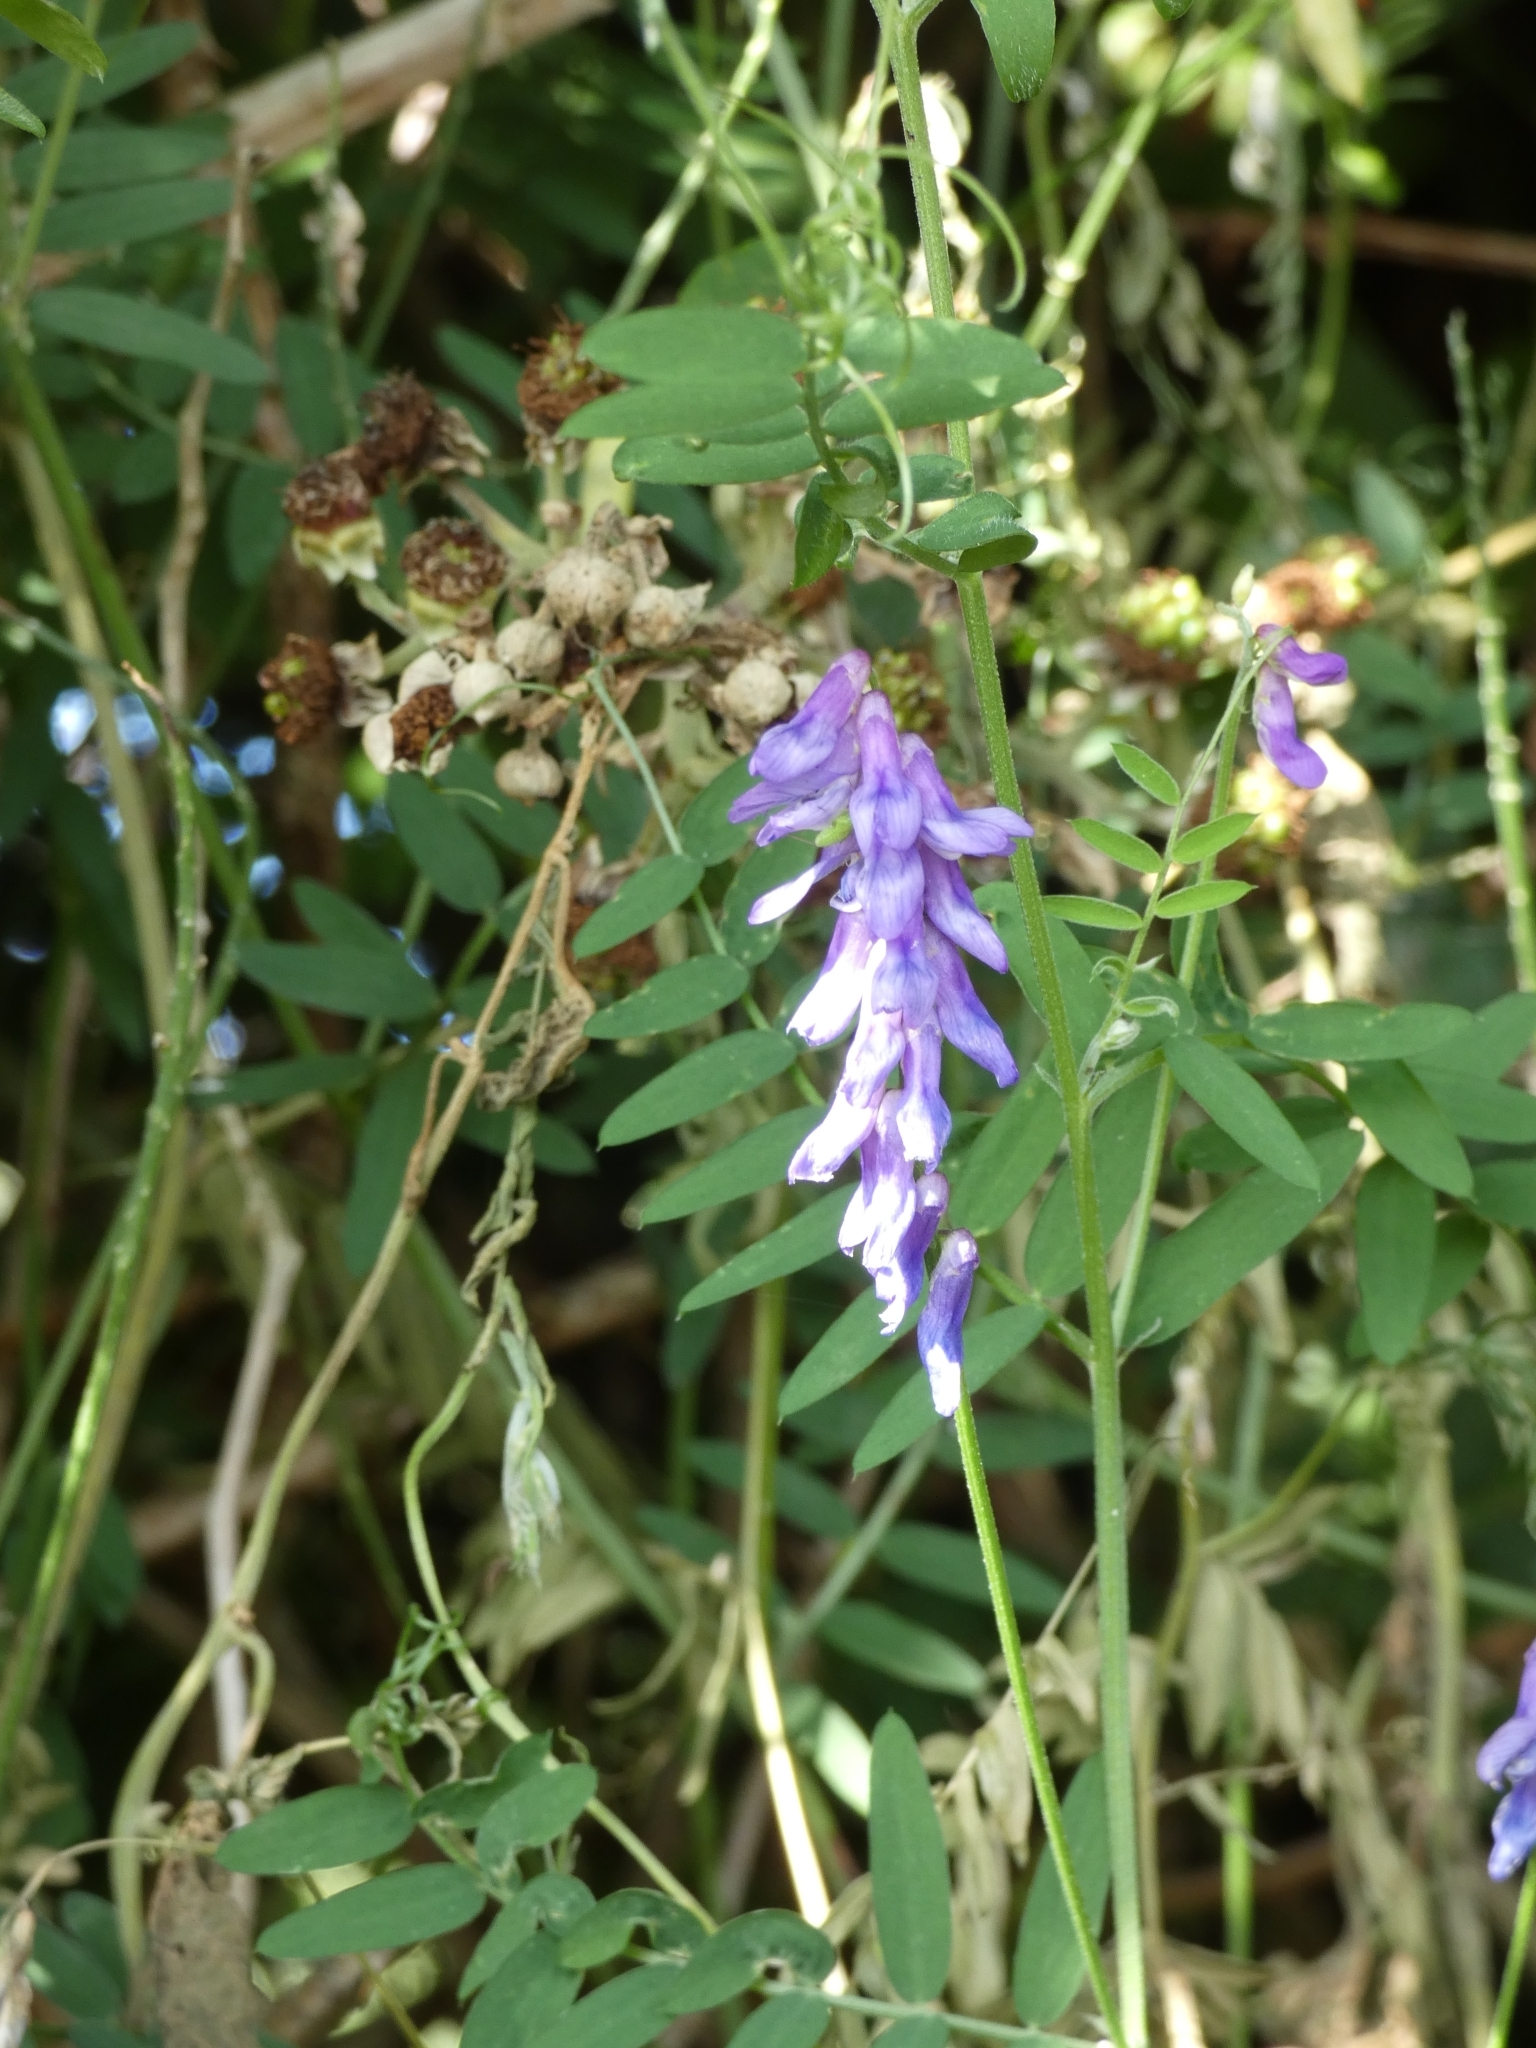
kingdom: Plantae
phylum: Tracheophyta
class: Magnoliopsida
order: Fabales
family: Fabaceae
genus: Vicia
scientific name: Vicia cracca
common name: Bird vetch
